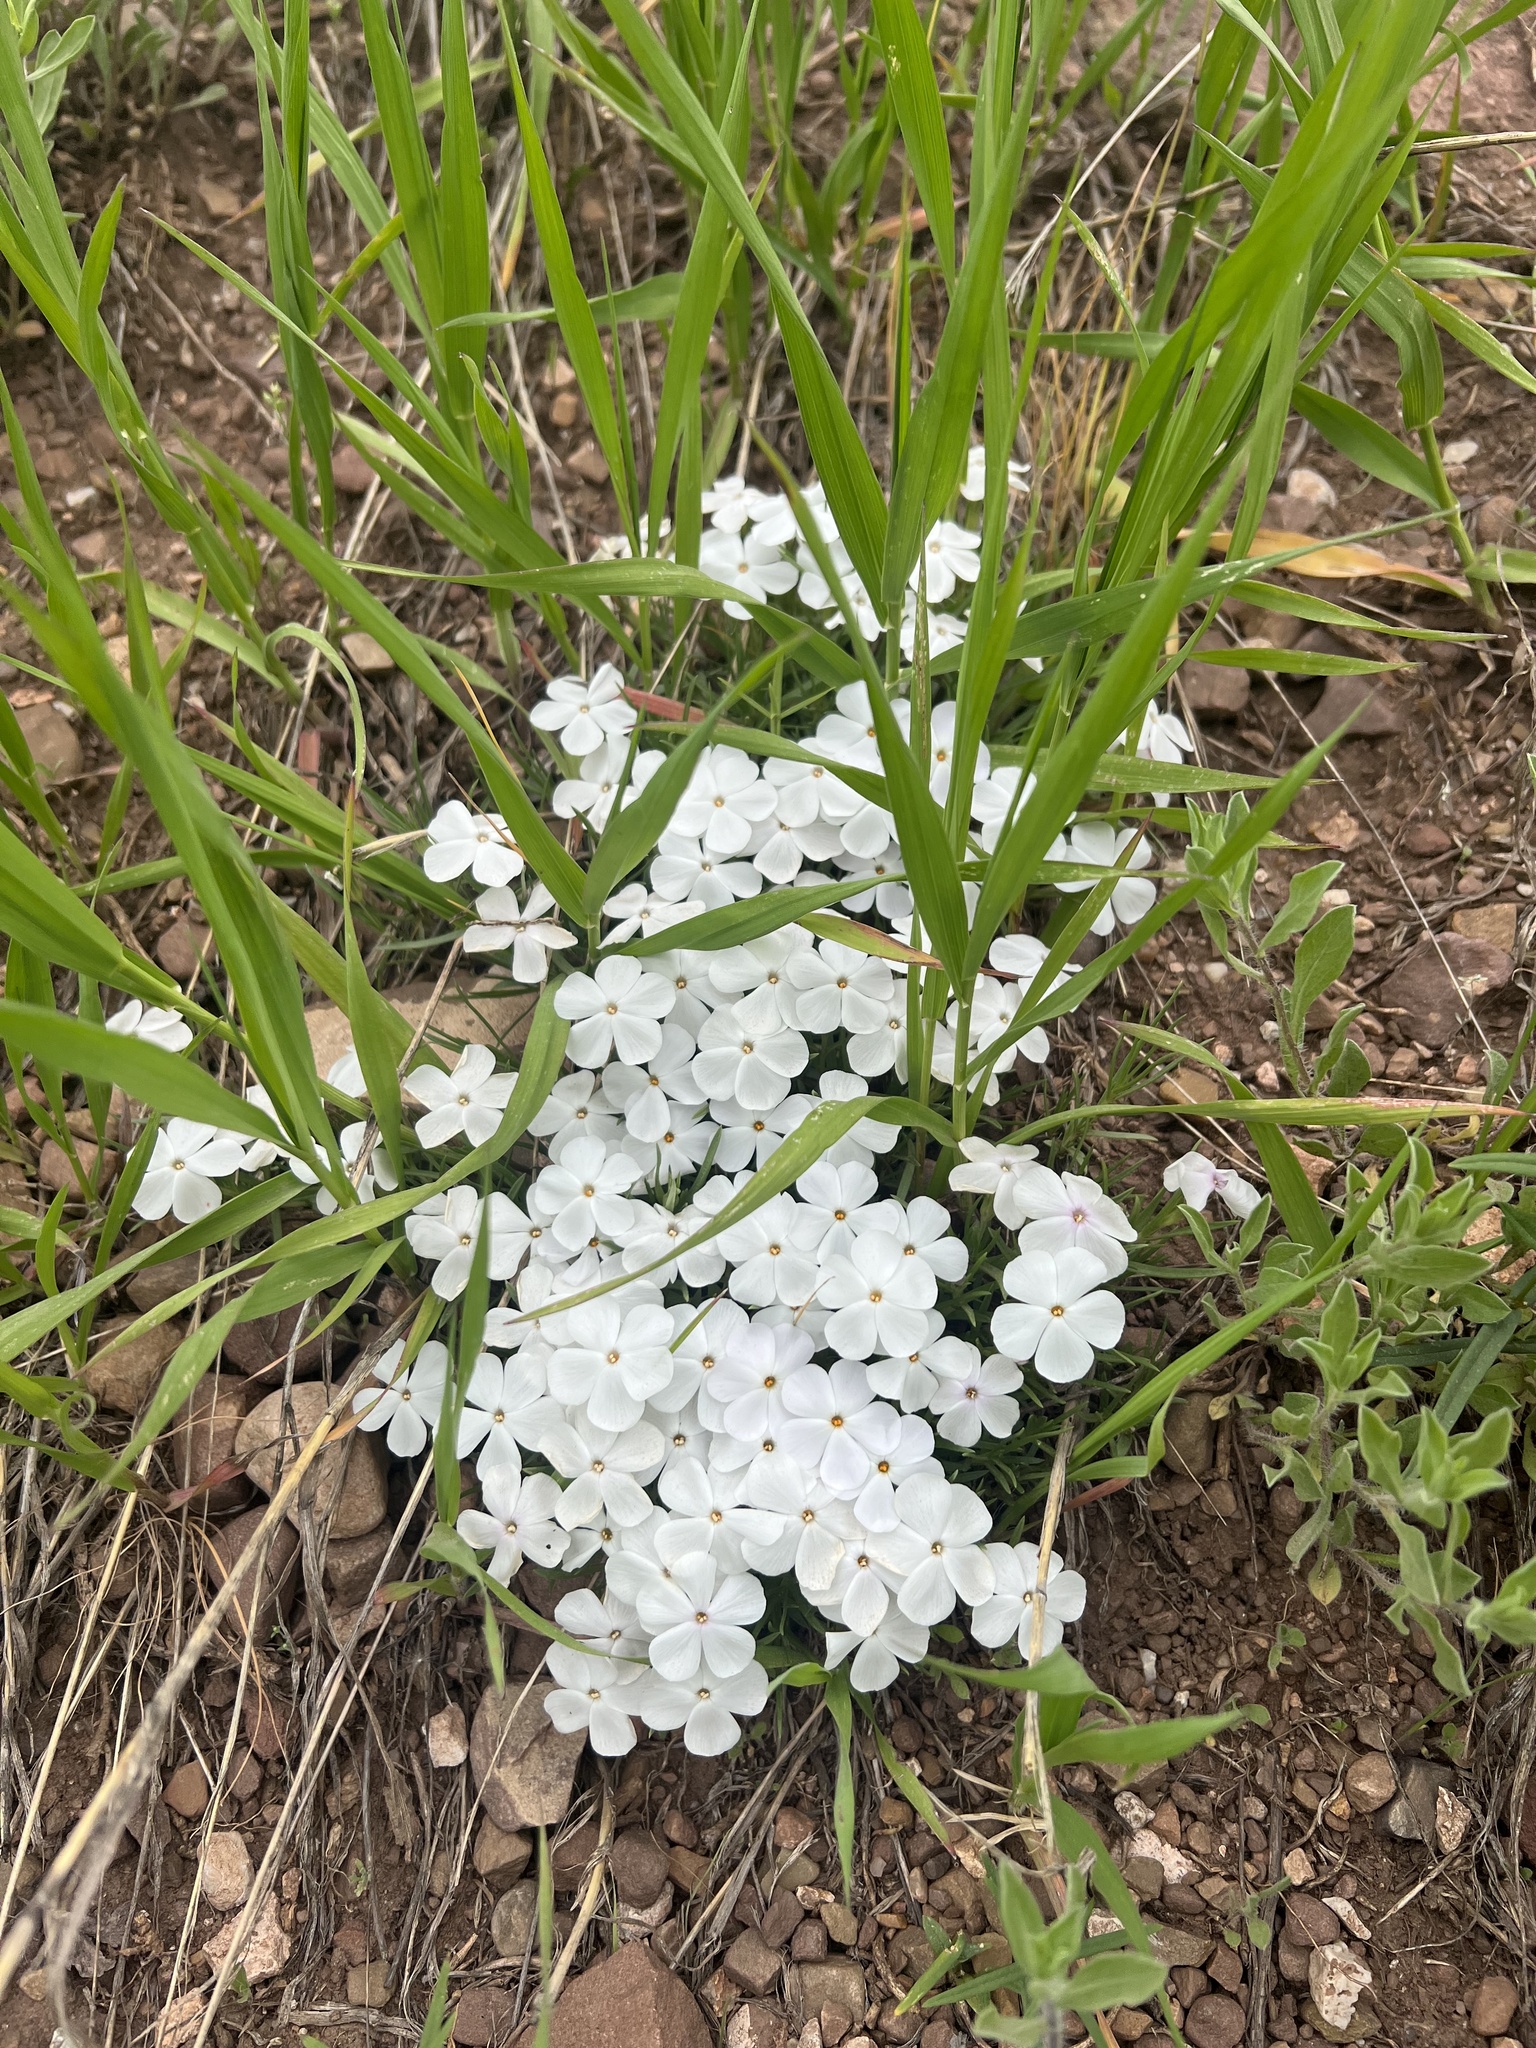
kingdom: Plantae
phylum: Tracheophyta
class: Magnoliopsida
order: Ericales
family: Polemoniaceae
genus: Phlox
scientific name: Phlox multiflora
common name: Rocky mountain phlox
